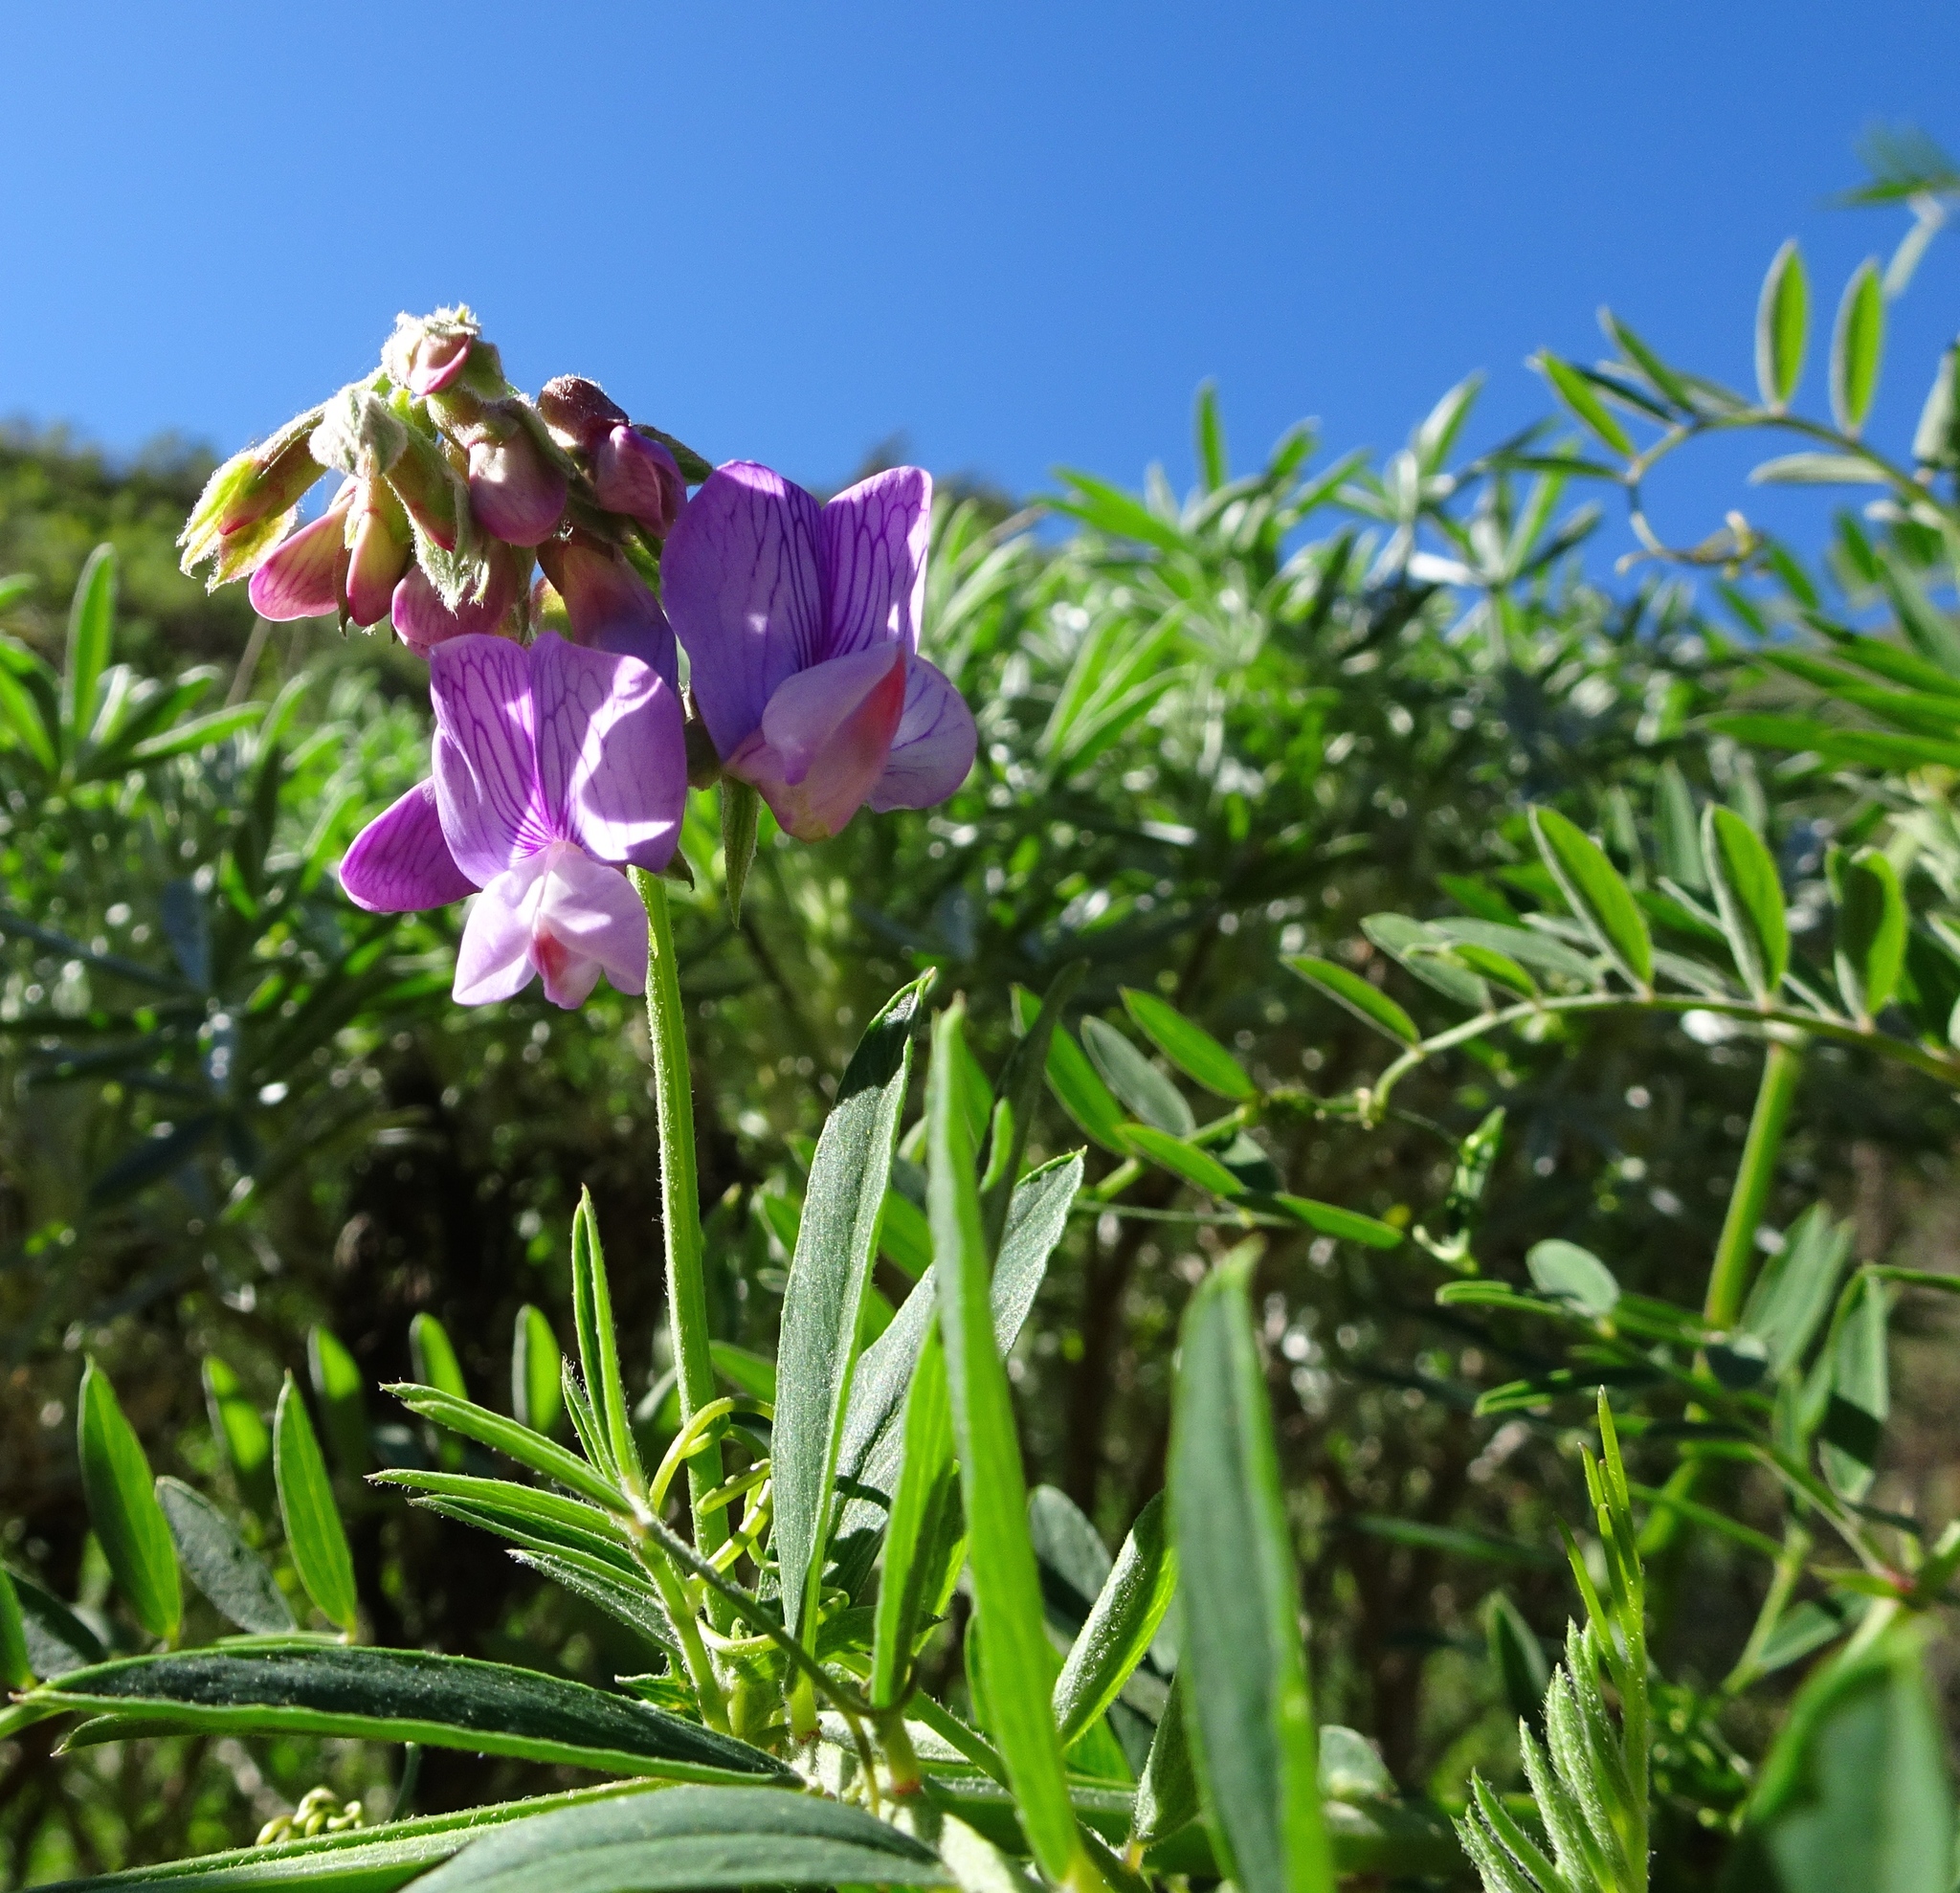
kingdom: Plantae
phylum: Tracheophyta
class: Magnoliopsida
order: Fabales
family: Fabaceae
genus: Lathyrus
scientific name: Lathyrus vestitus
